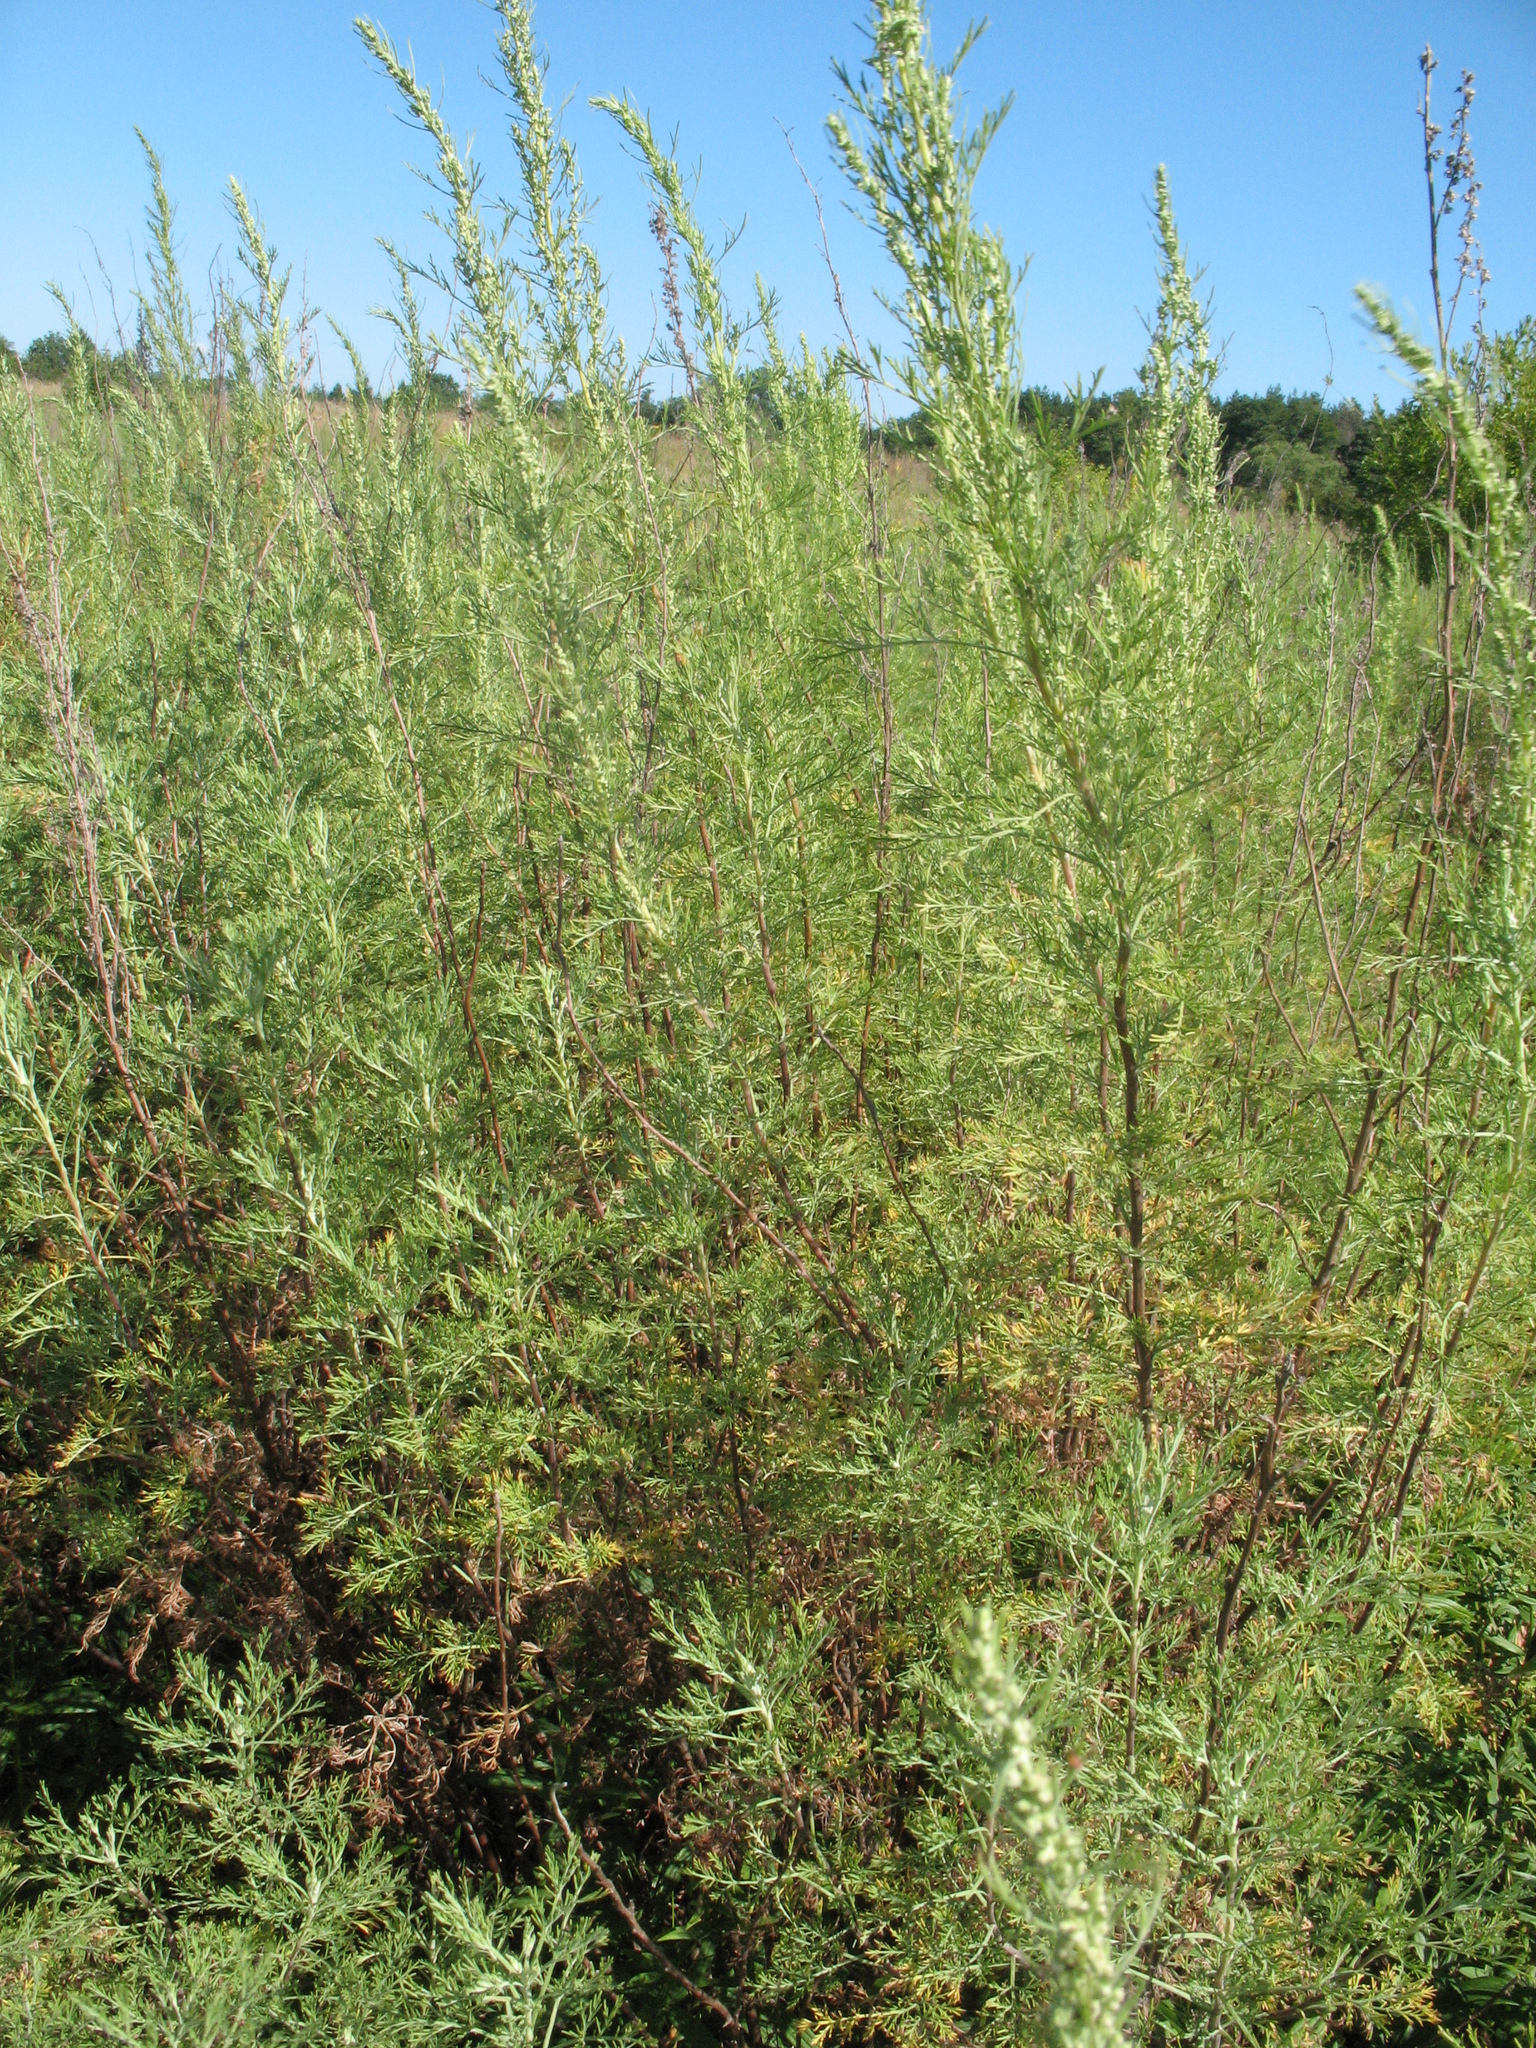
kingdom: Plantae
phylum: Tracheophyta
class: Magnoliopsida
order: Asterales
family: Asteraceae
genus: Artemisia
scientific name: Artemisia abrotanum
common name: Southernwood
